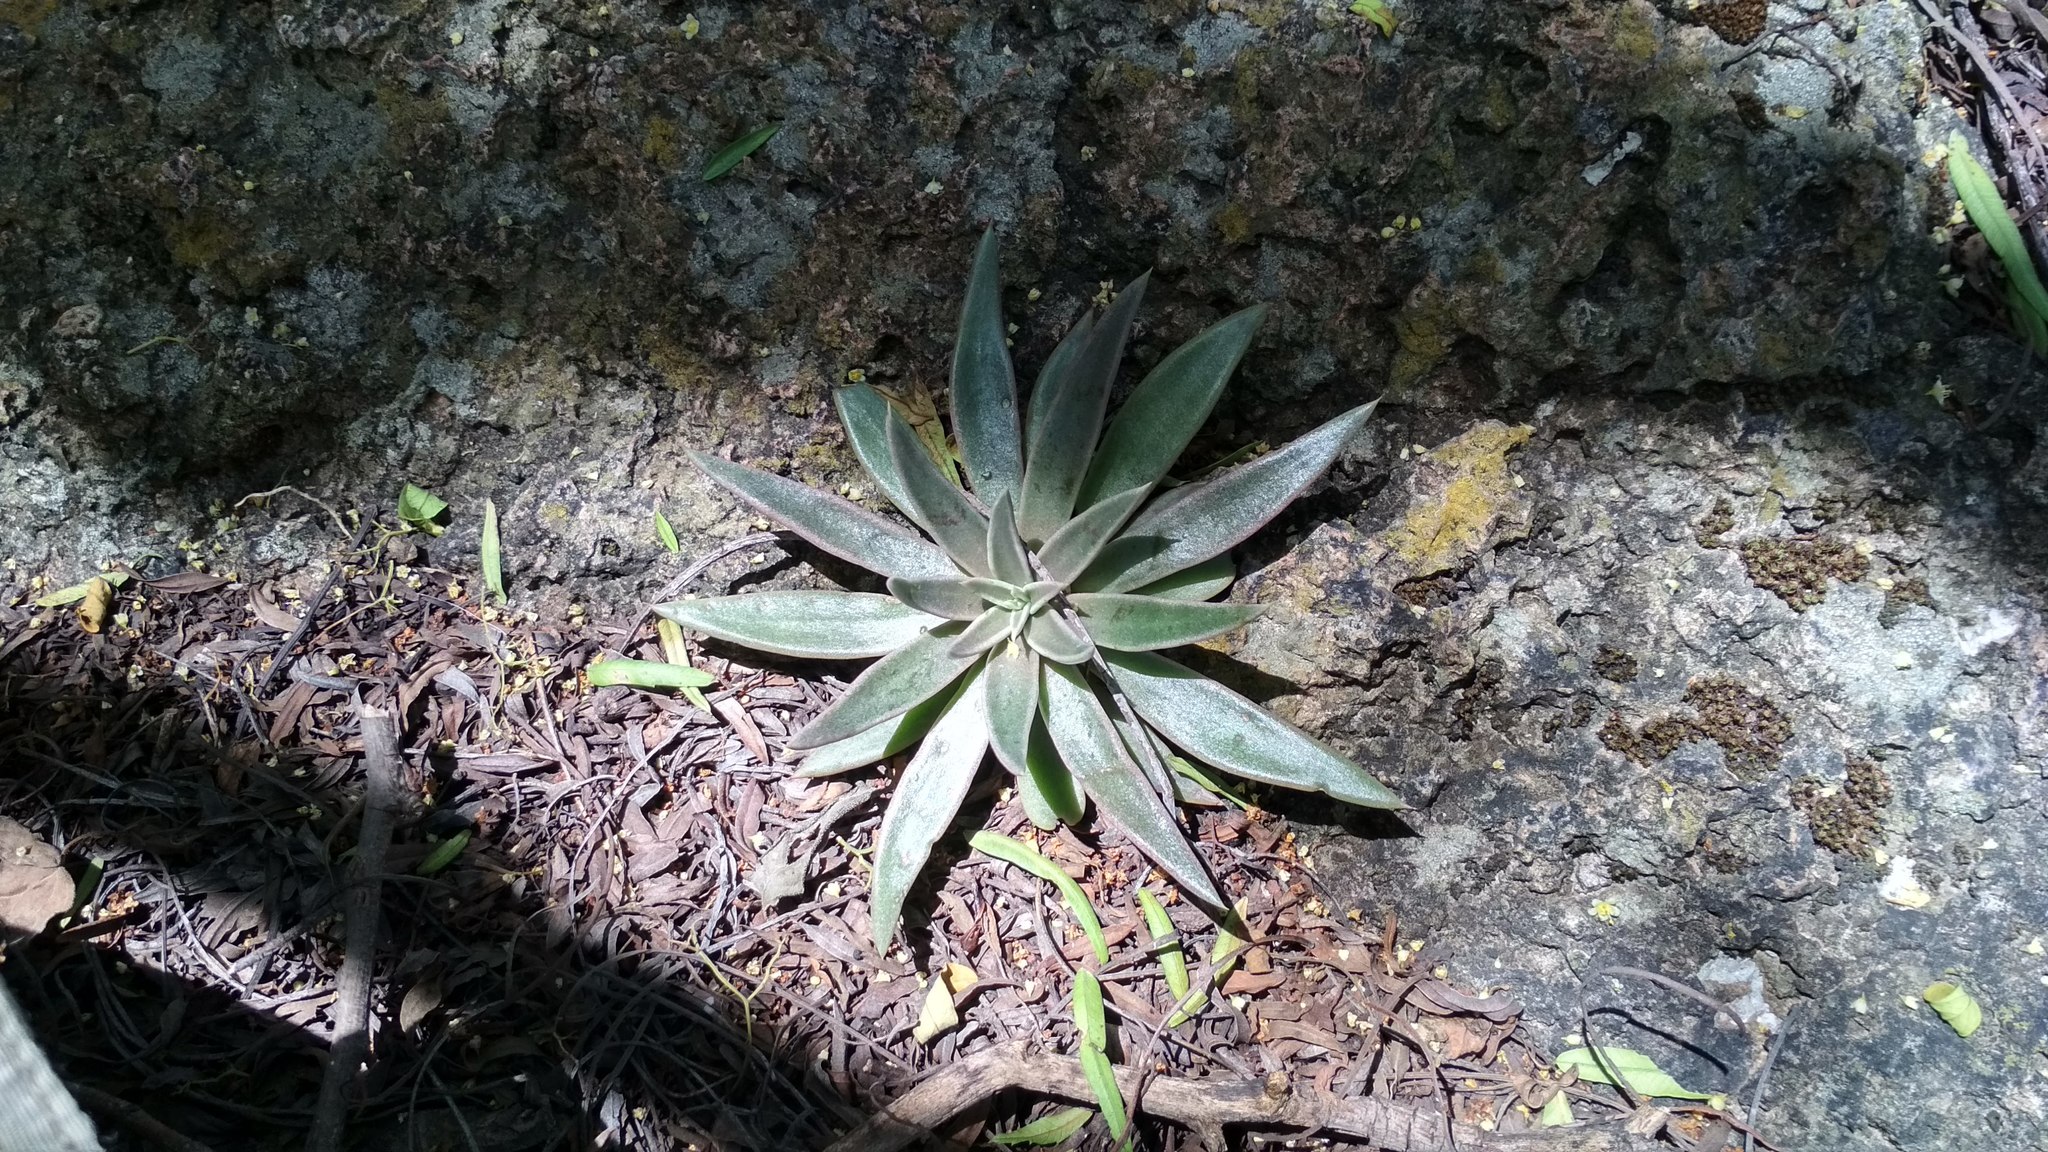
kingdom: Plantae
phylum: Tracheophyta
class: Magnoliopsida
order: Saxifragales
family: Crassulaceae
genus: Echeveria
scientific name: Echeveria bifida
